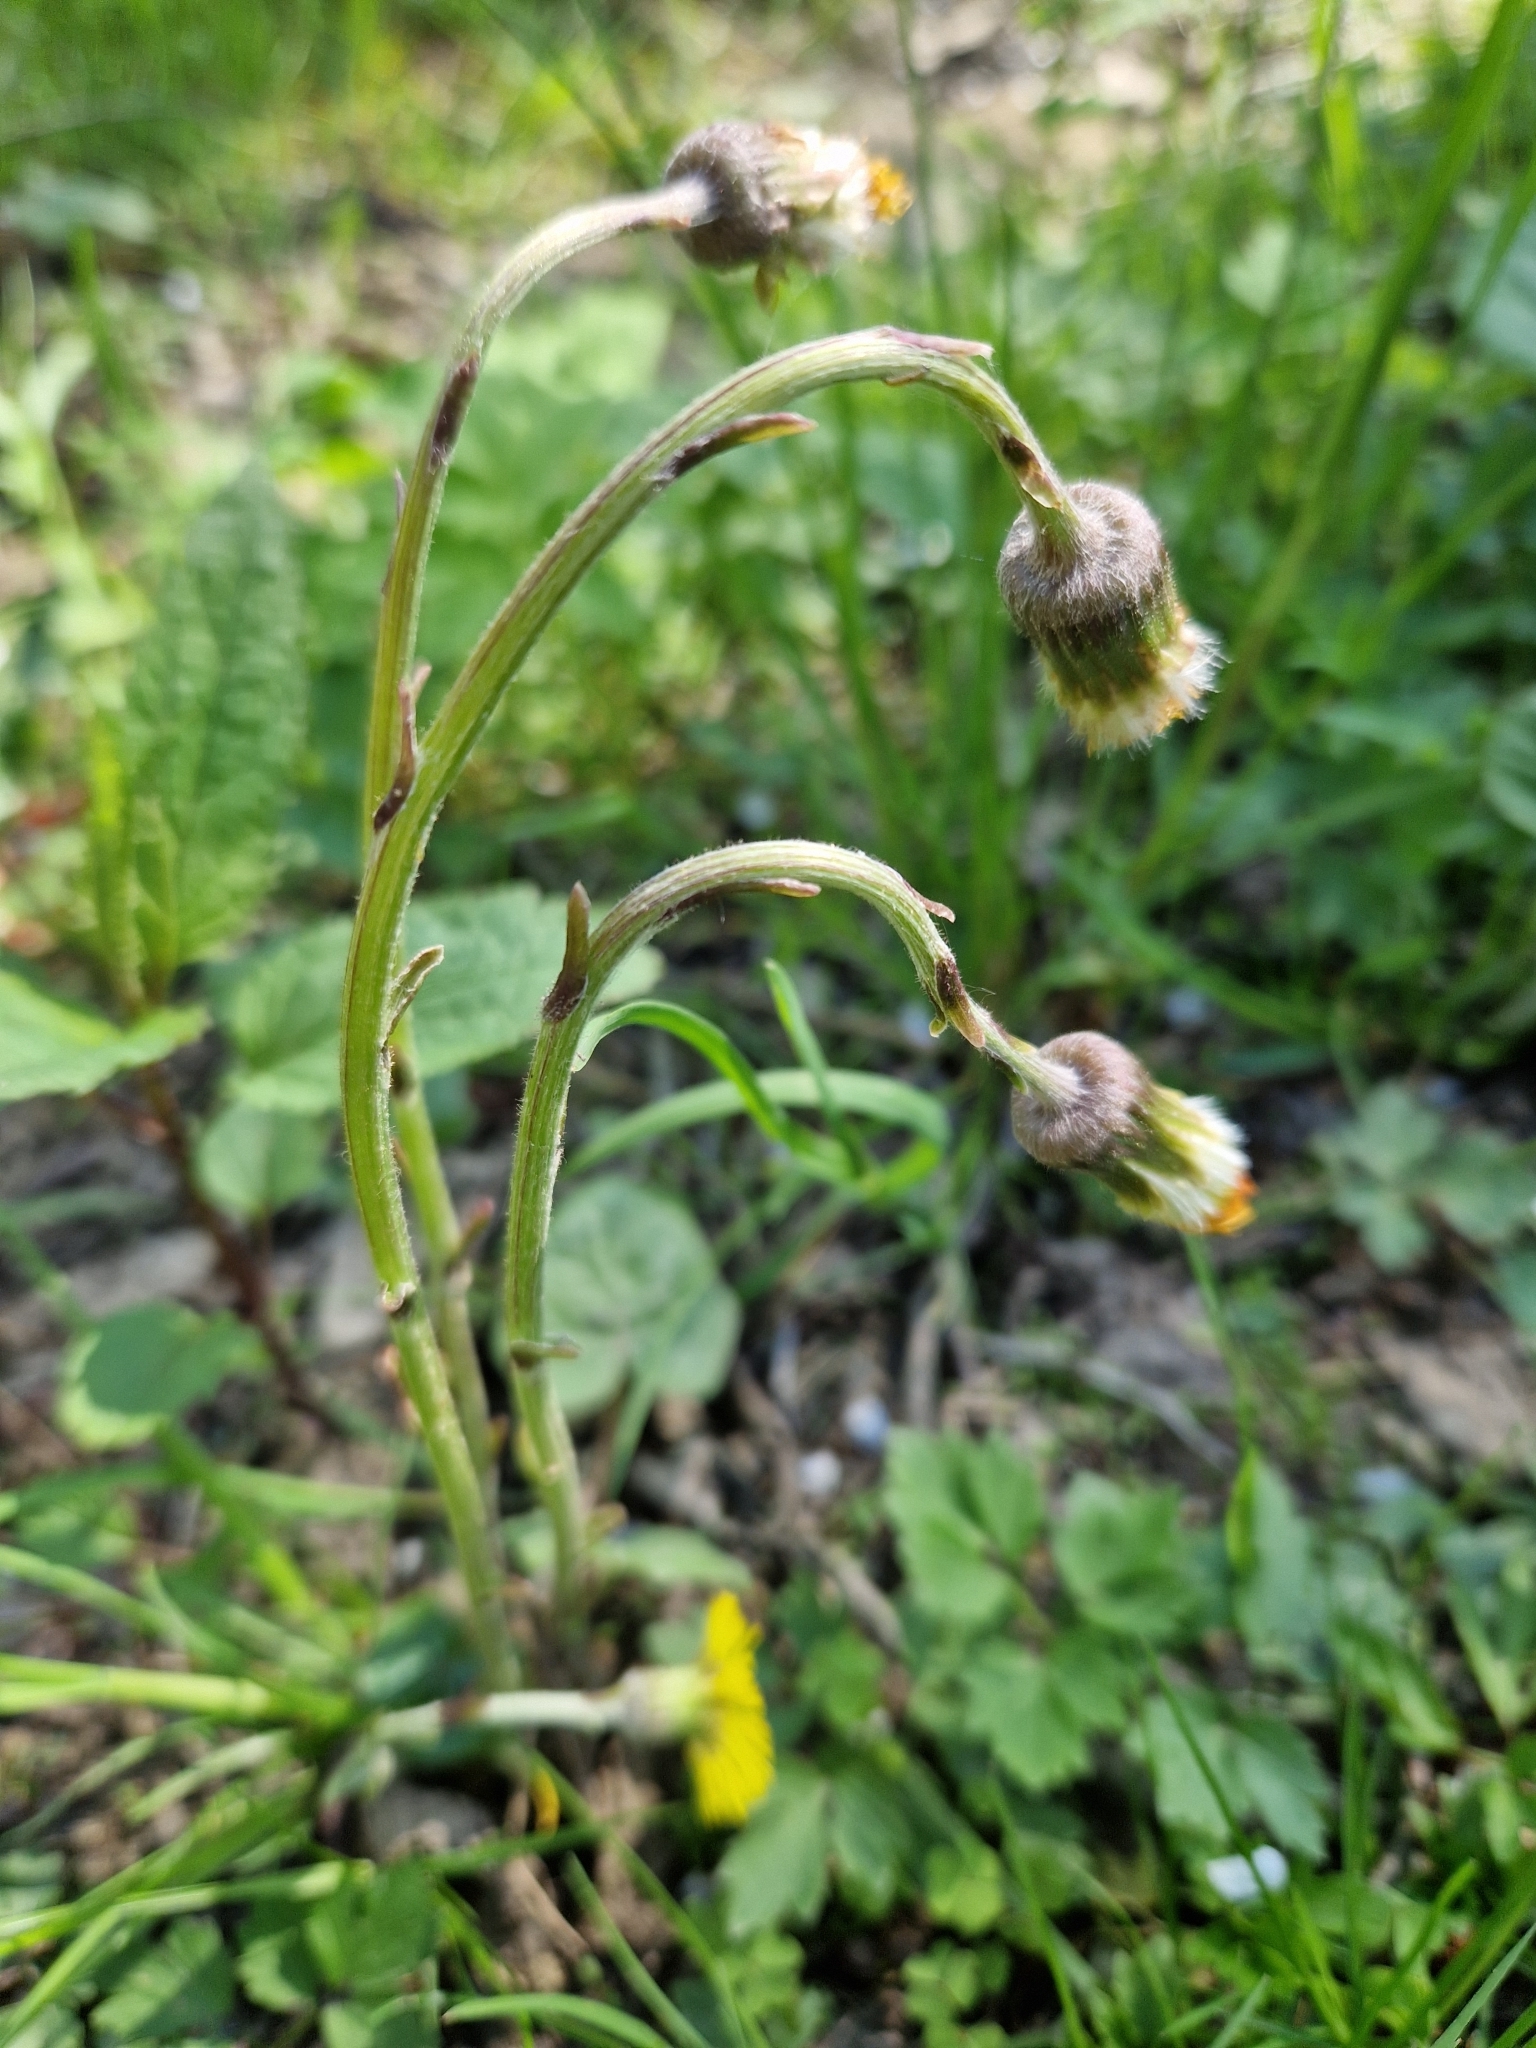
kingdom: Plantae
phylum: Tracheophyta
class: Magnoliopsida
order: Asterales
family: Asteraceae
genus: Tussilago
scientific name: Tussilago farfara
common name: Coltsfoot
